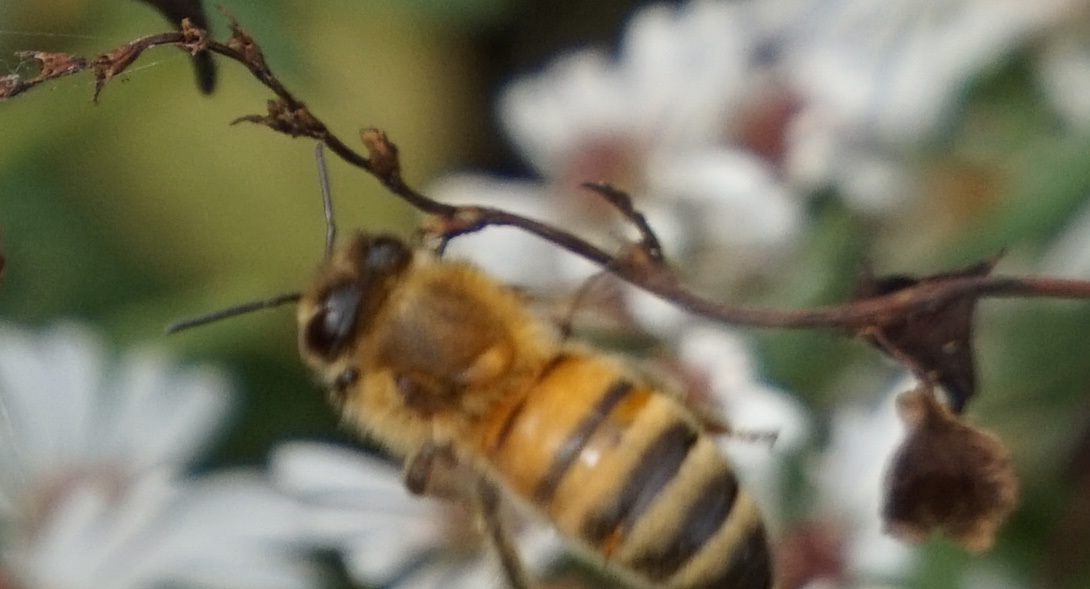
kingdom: Animalia
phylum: Arthropoda
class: Insecta
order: Hymenoptera
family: Apidae
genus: Apis
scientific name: Apis mellifera
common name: Honey bee
